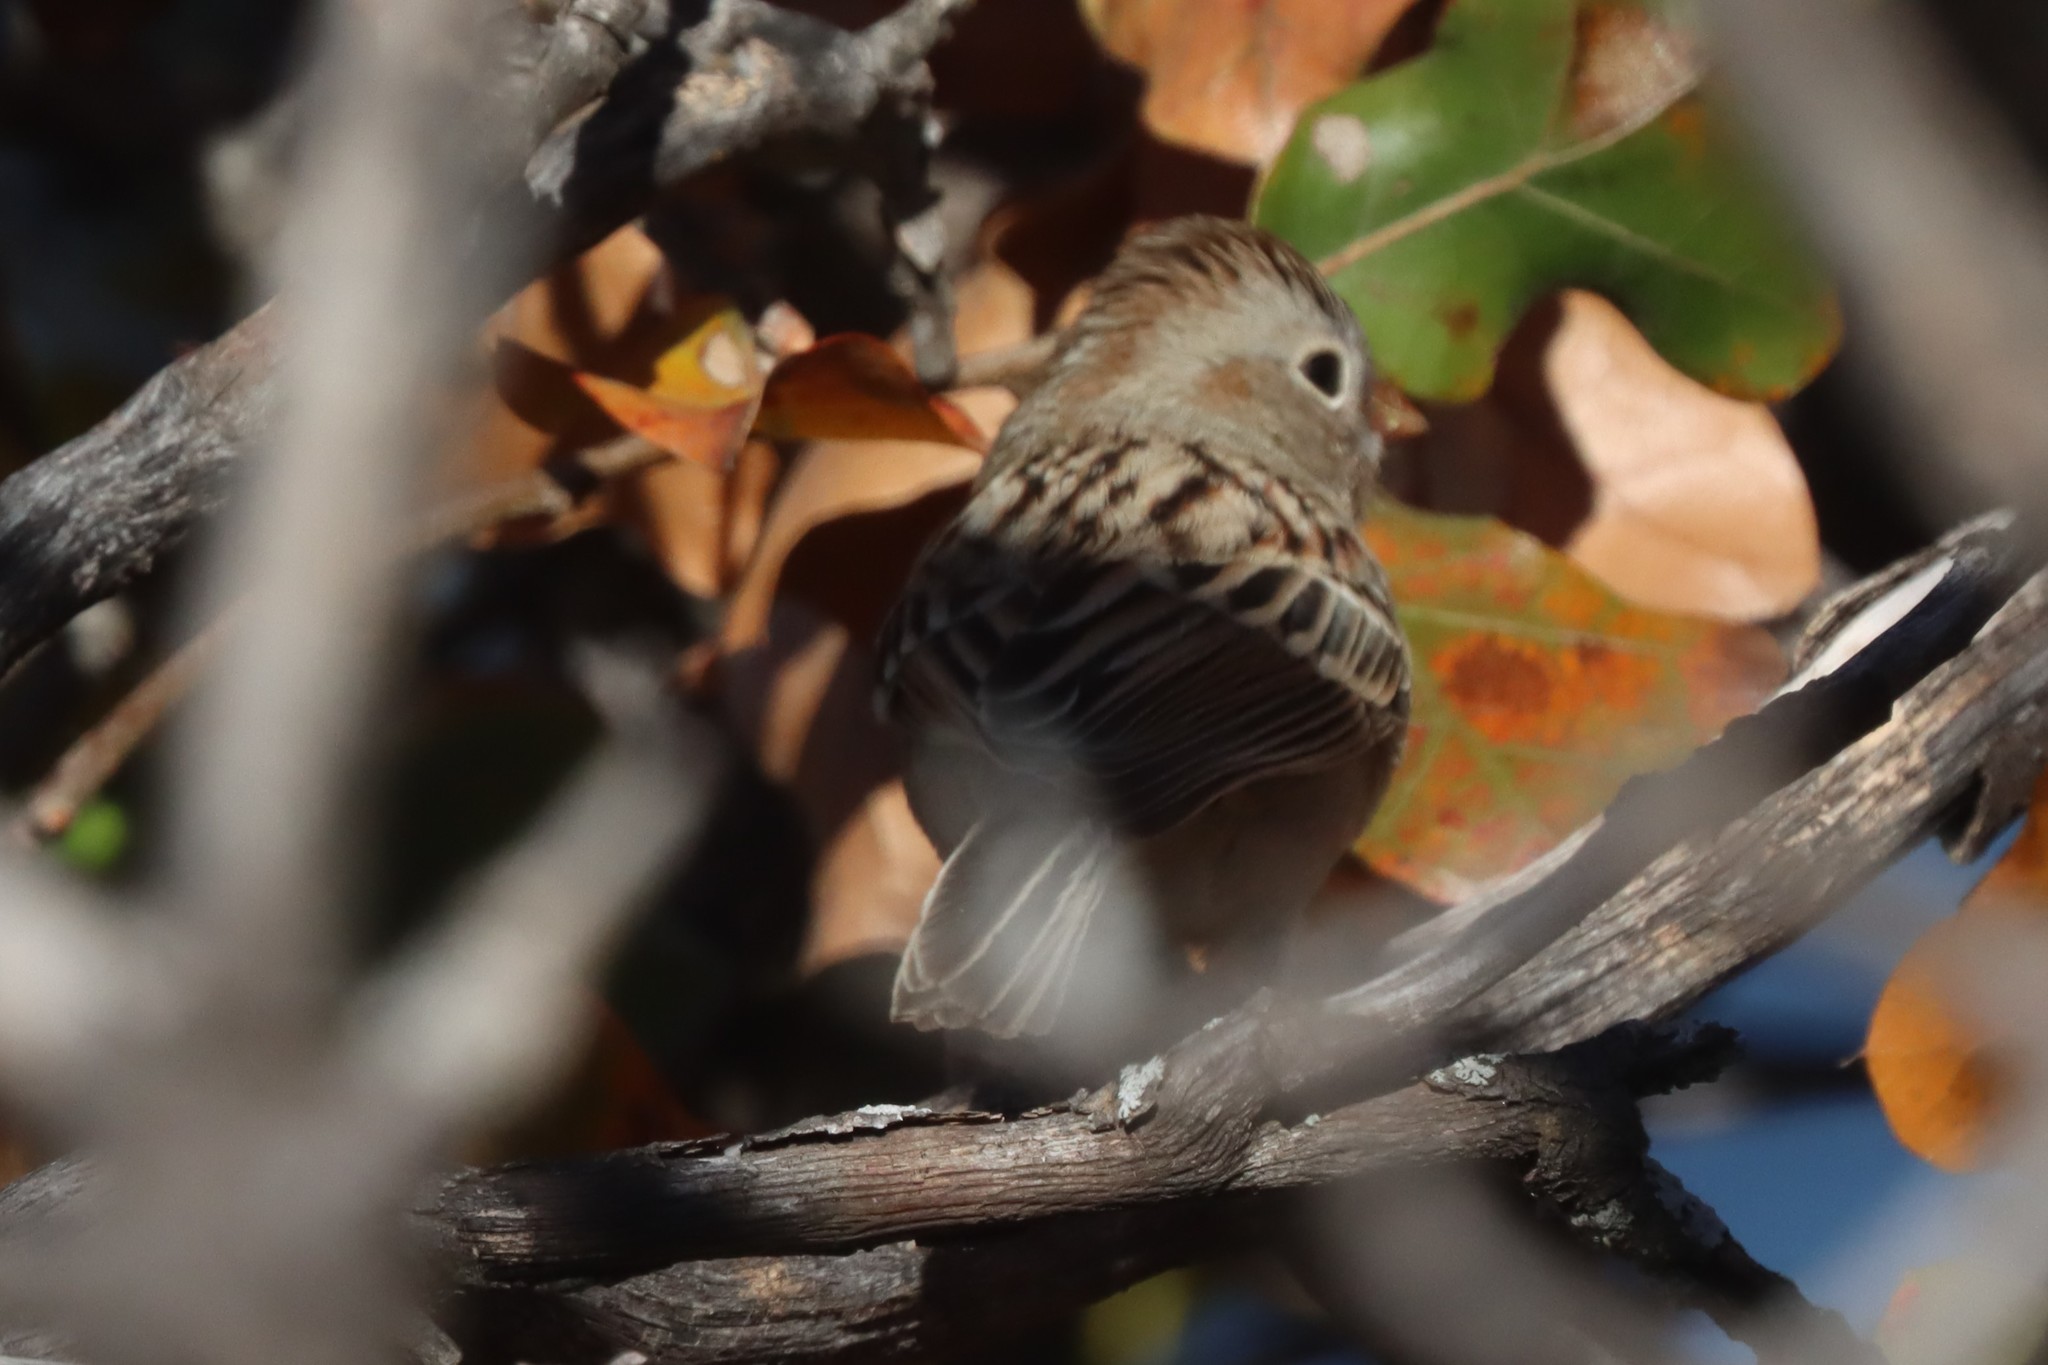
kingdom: Animalia
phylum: Chordata
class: Aves
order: Passeriformes
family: Passerellidae
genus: Spizella
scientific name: Spizella pusilla
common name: Field sparrow
